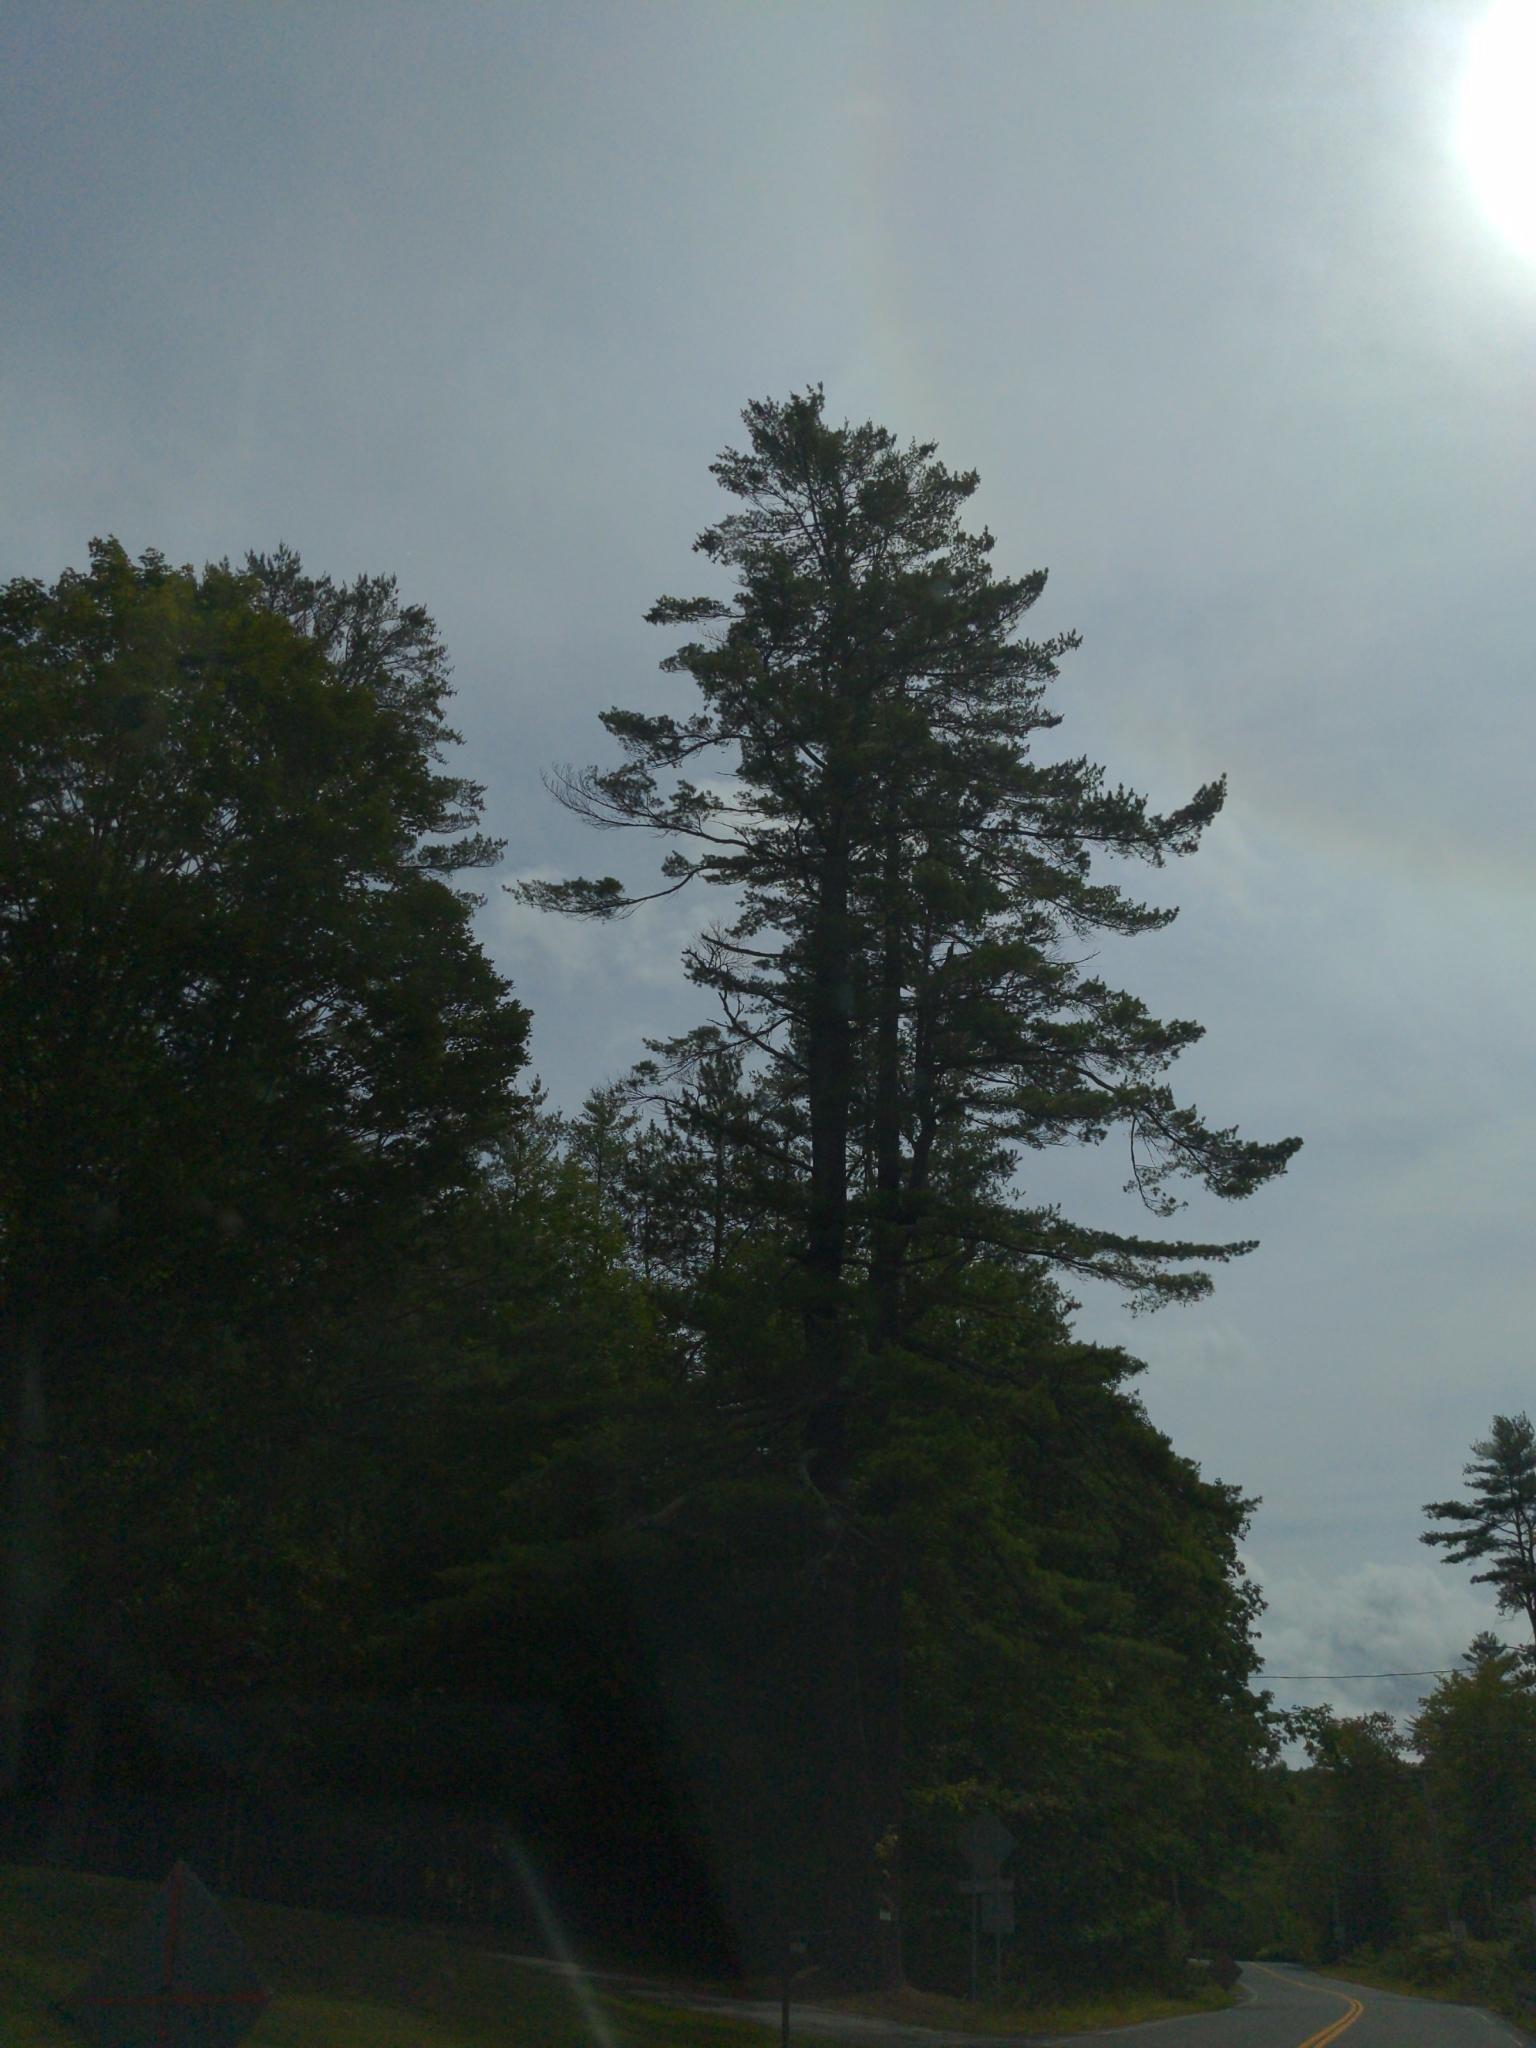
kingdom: Plantae
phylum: Tracheophyta
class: Pinopsida
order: Pinales
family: Pinaceae
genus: Pinus
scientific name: Pinus strobus
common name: Weymouth pine
